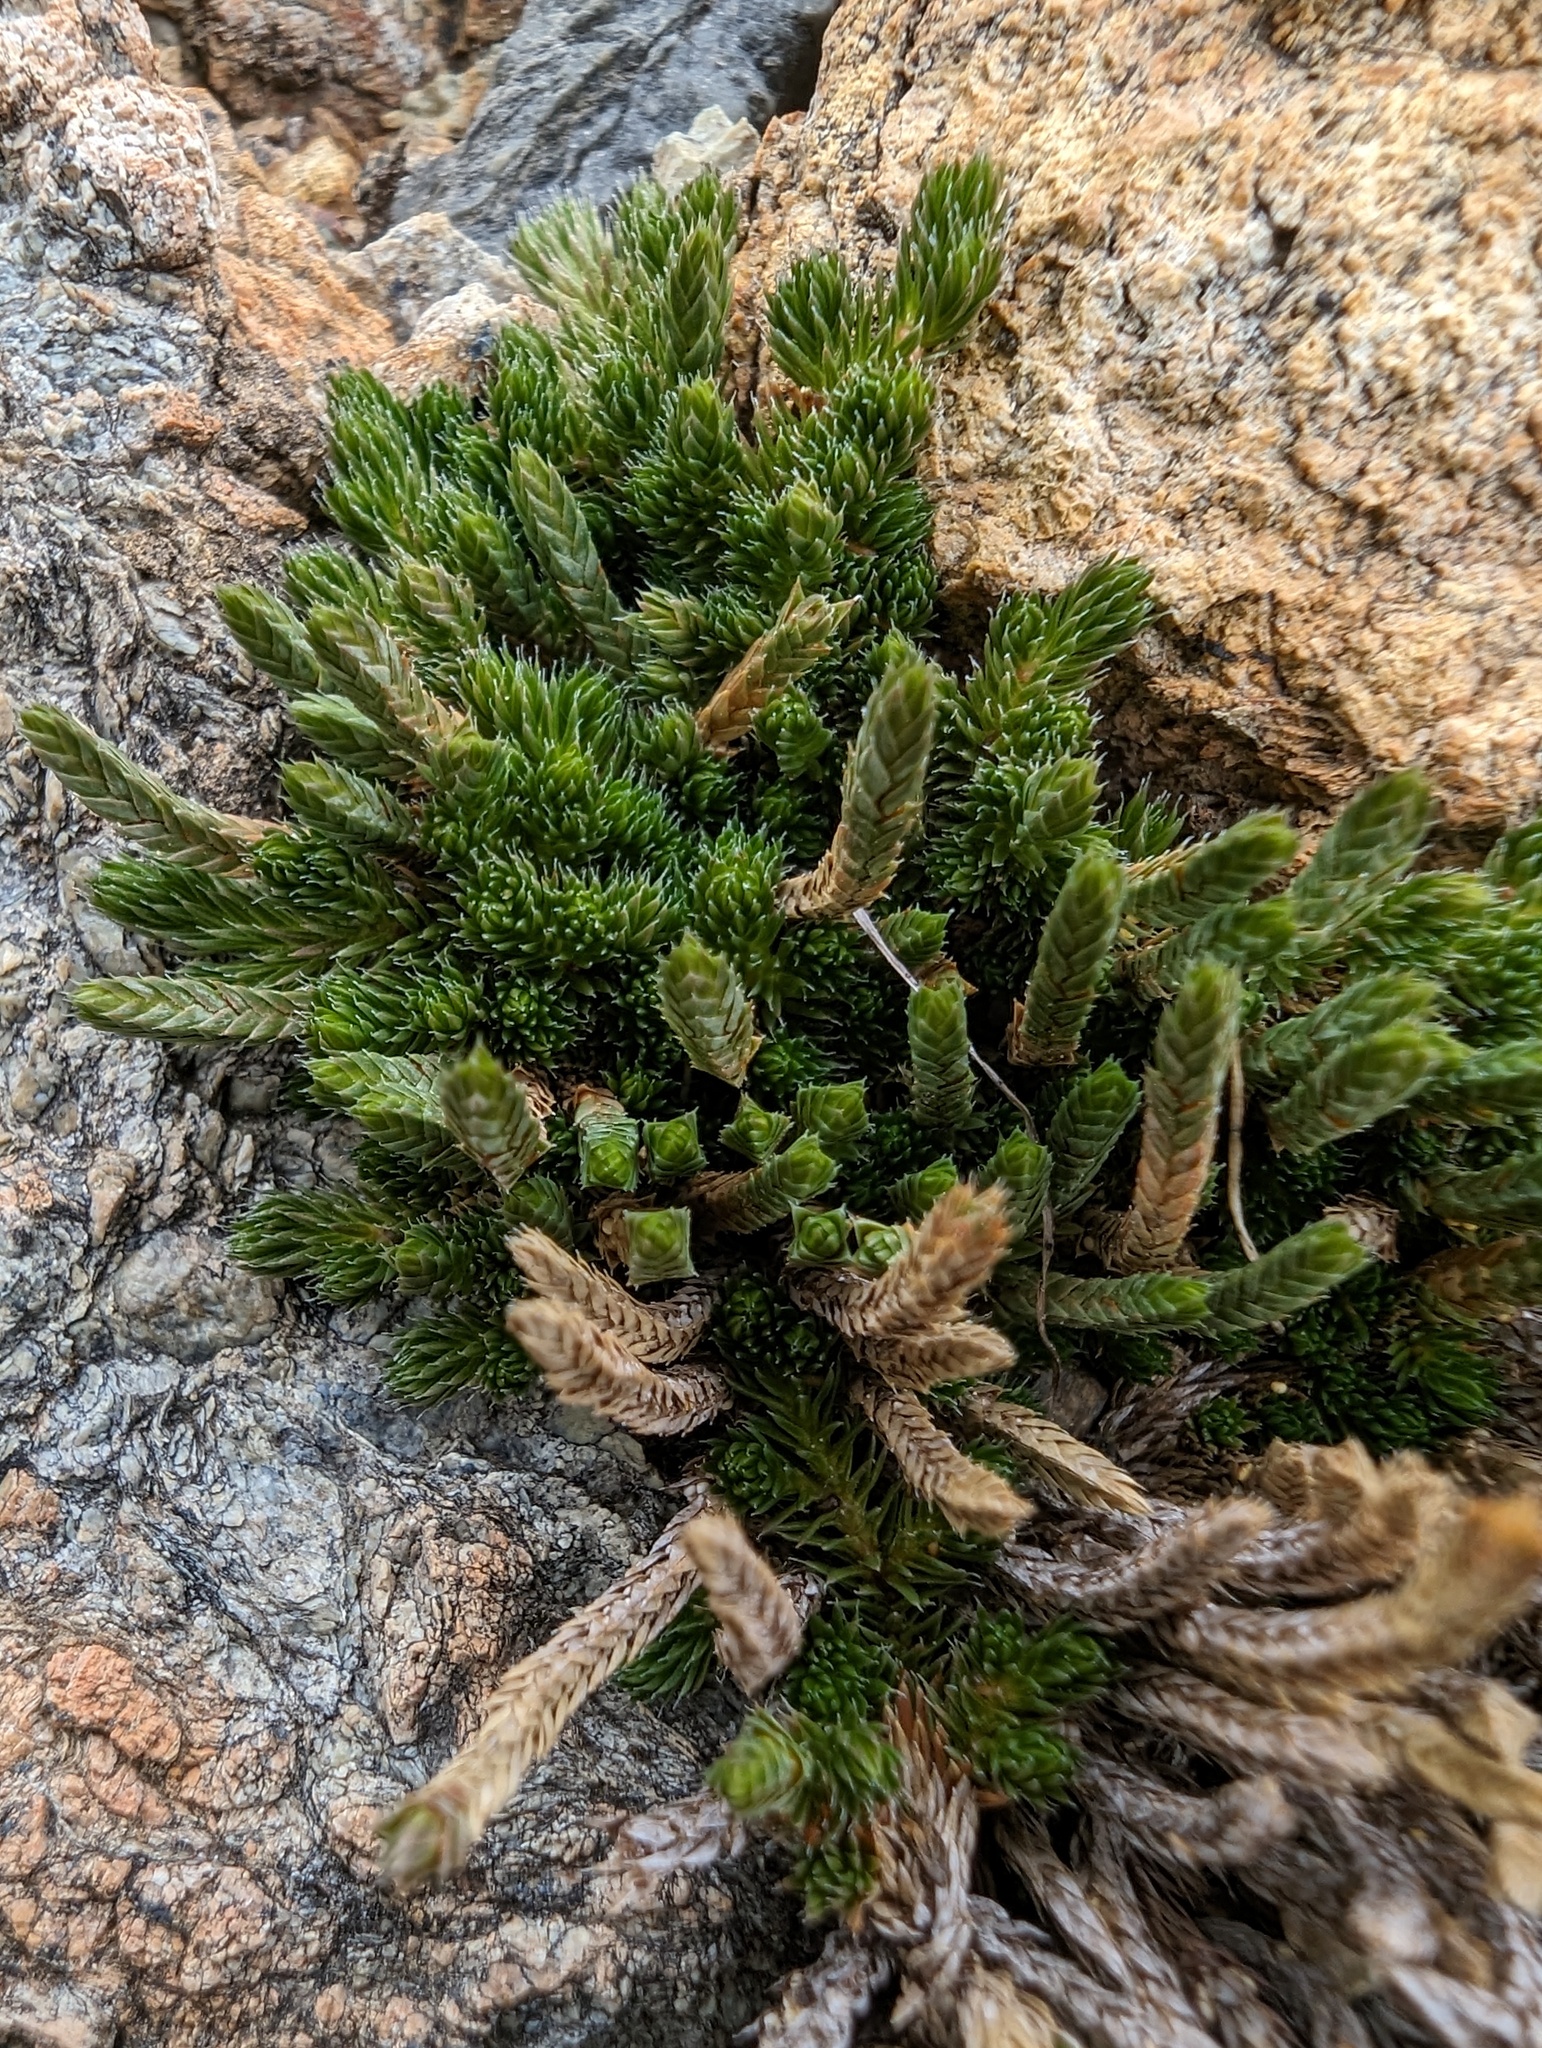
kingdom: Plantae
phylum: Tracheophyta
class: Lycopodiopsida
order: Selaginellales
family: Selaginellaceae
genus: Selaginella
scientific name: Selaginella wallacei
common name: Wallace's selaginella
